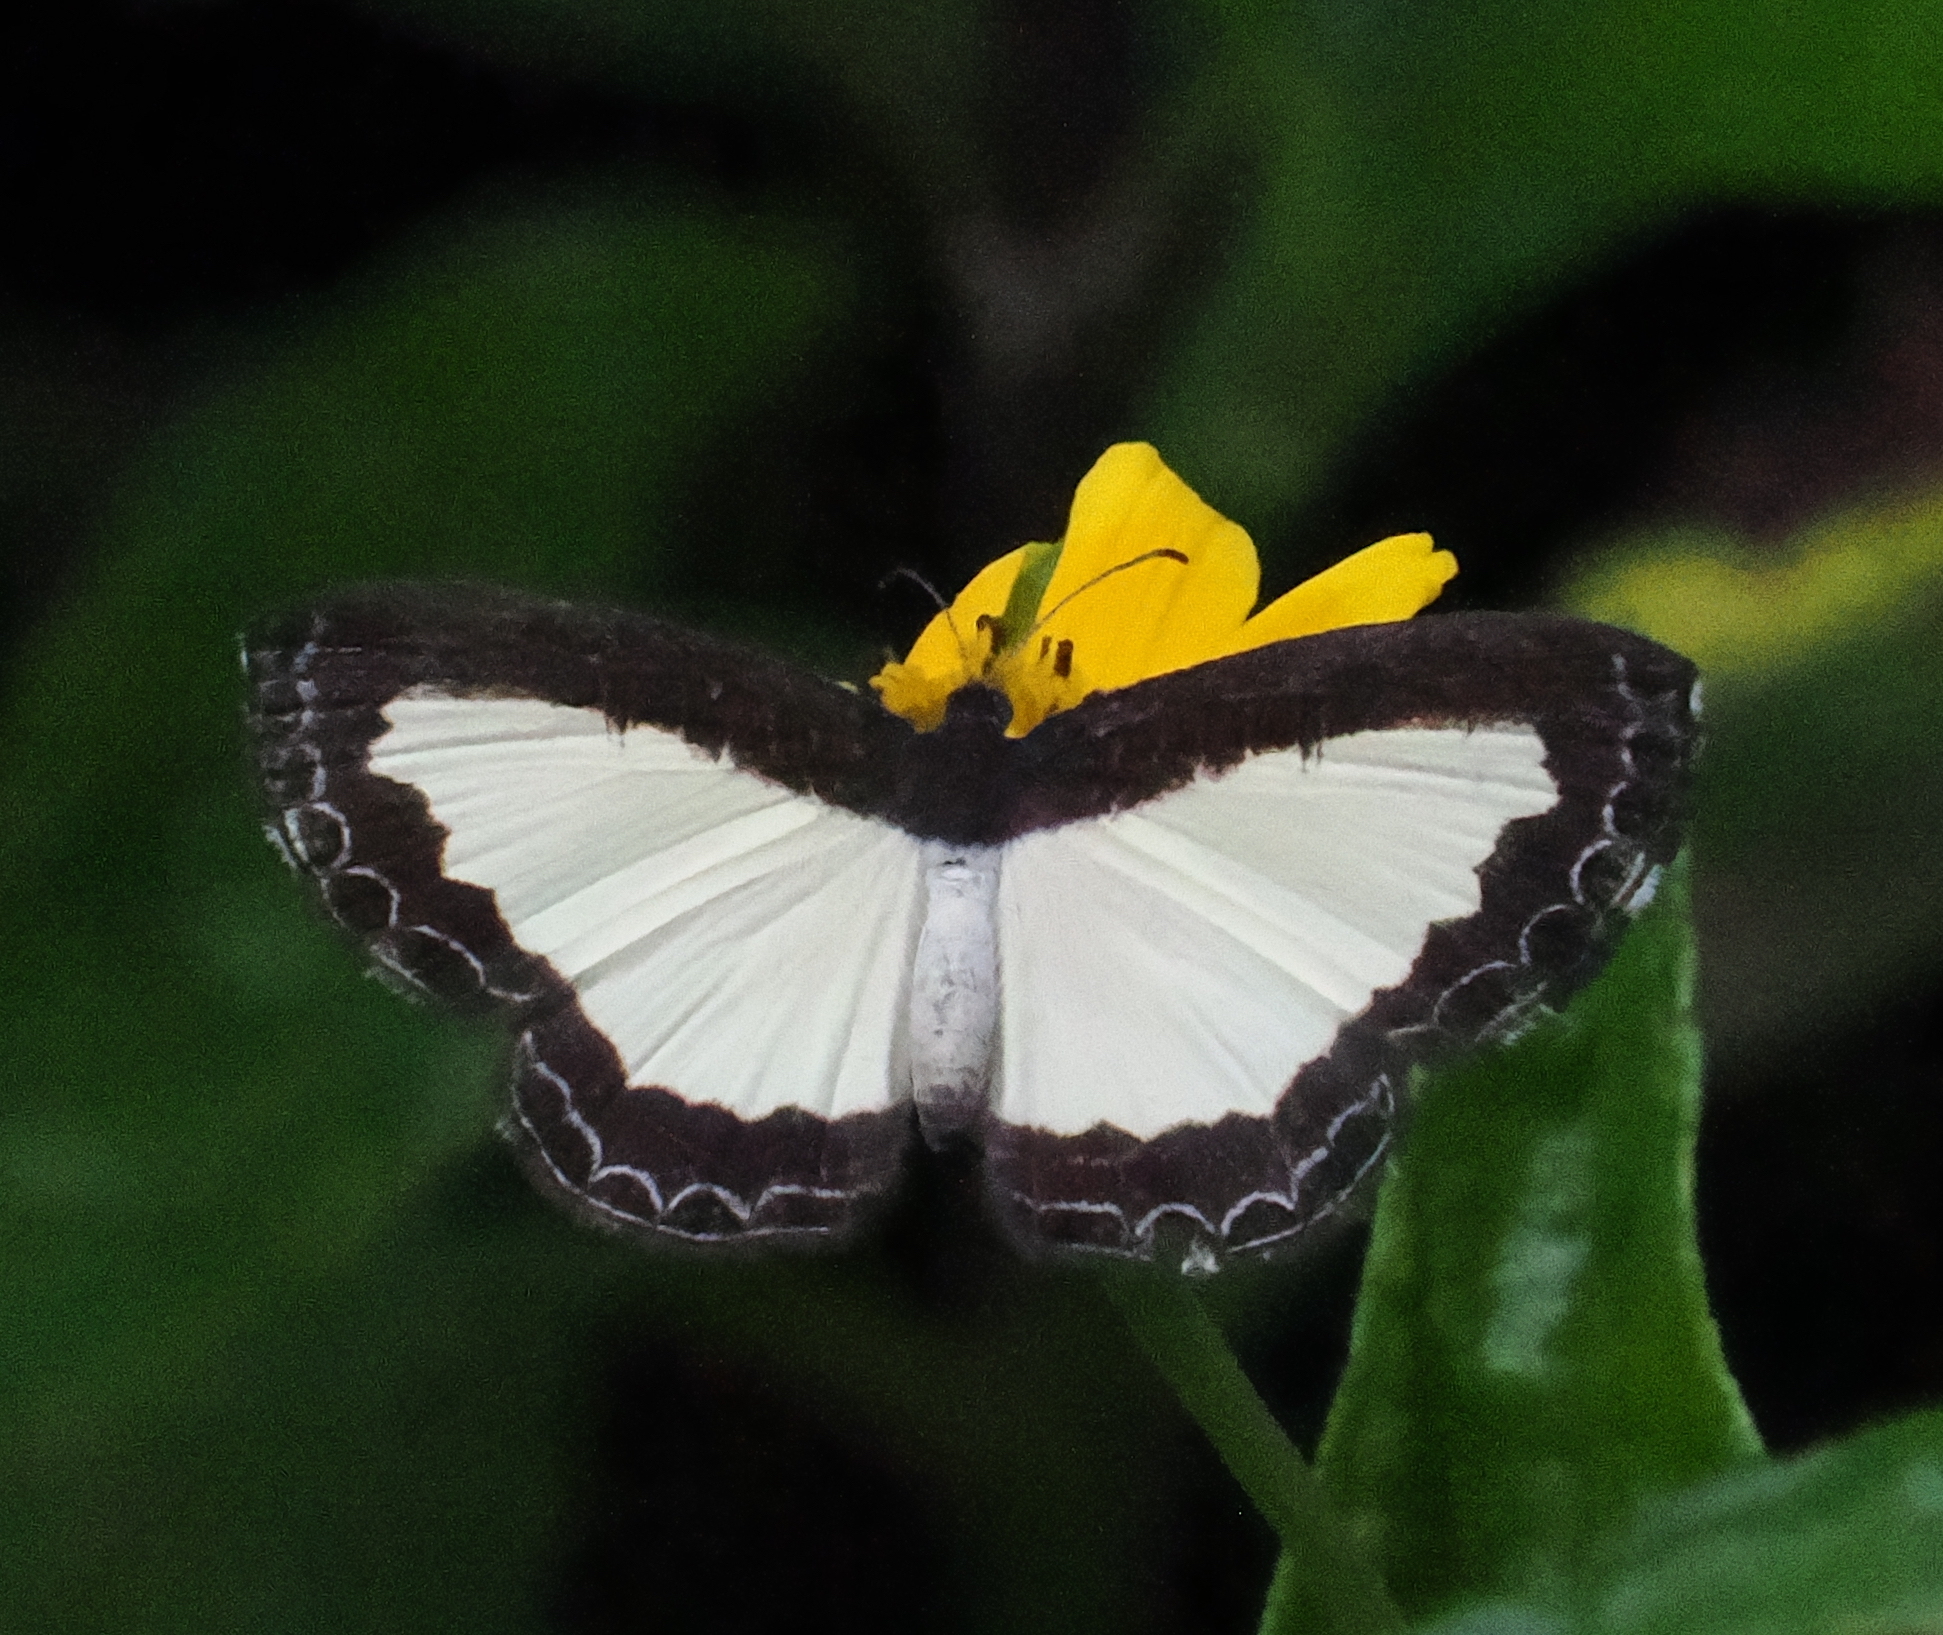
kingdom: Animalia
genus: Nymphidium
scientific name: Nymphidium chione
